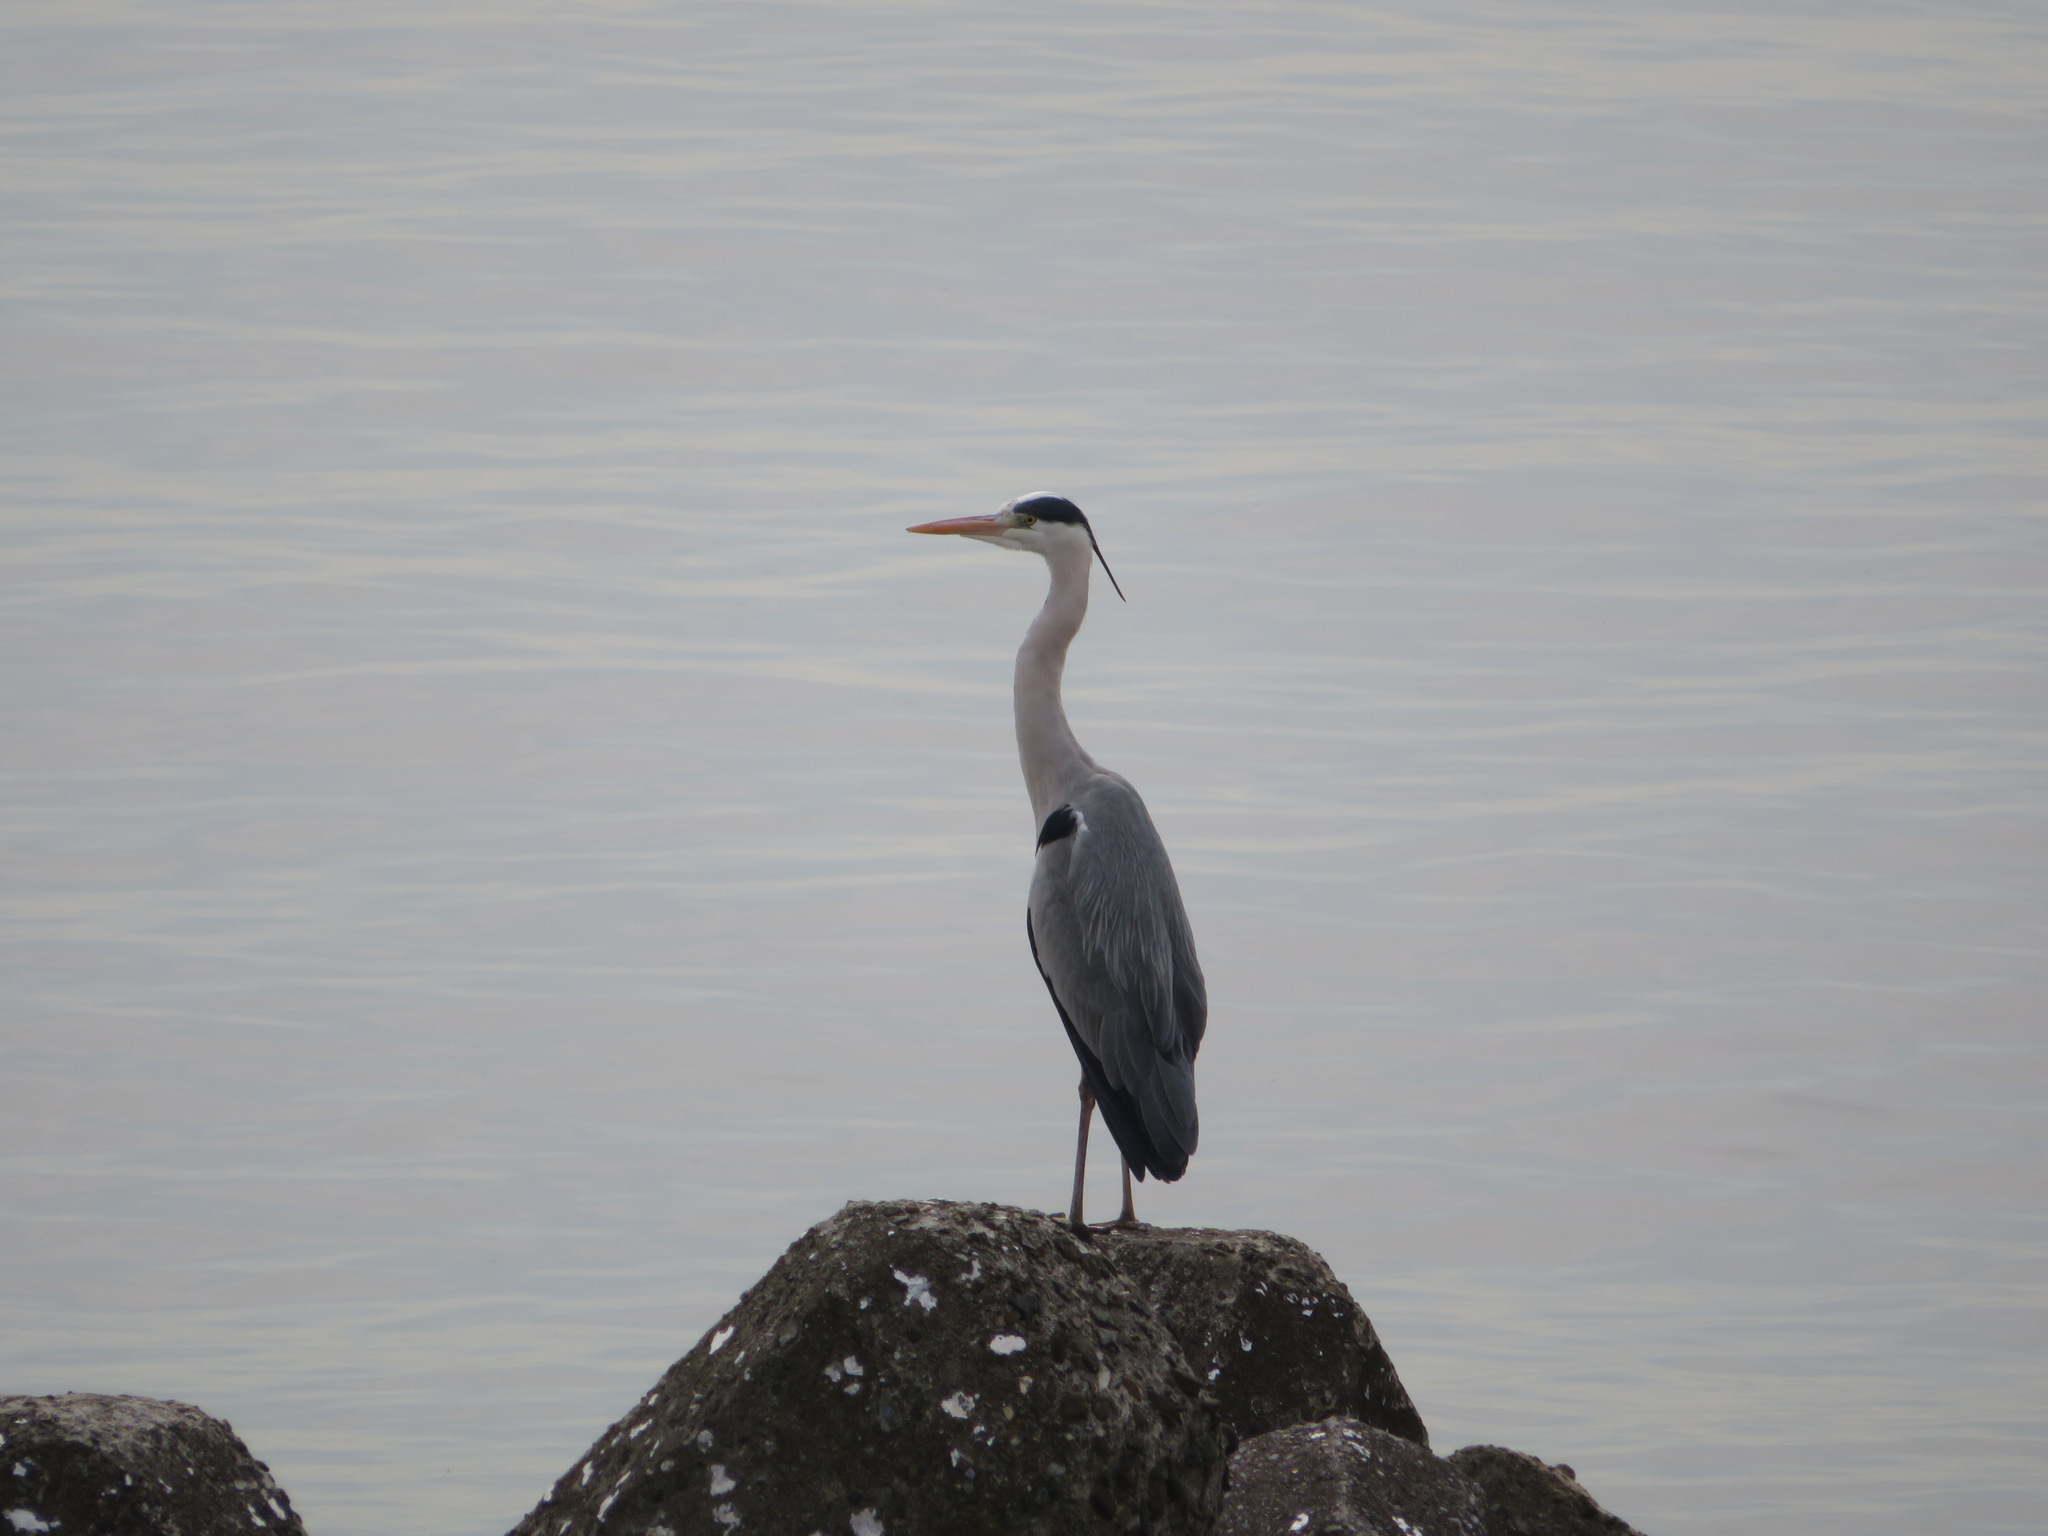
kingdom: Animalia
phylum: Chordata
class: Aves
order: Pelecaniformes
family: Ardeidae
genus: Ardea
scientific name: Ardea cinerea
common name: Grey heron
